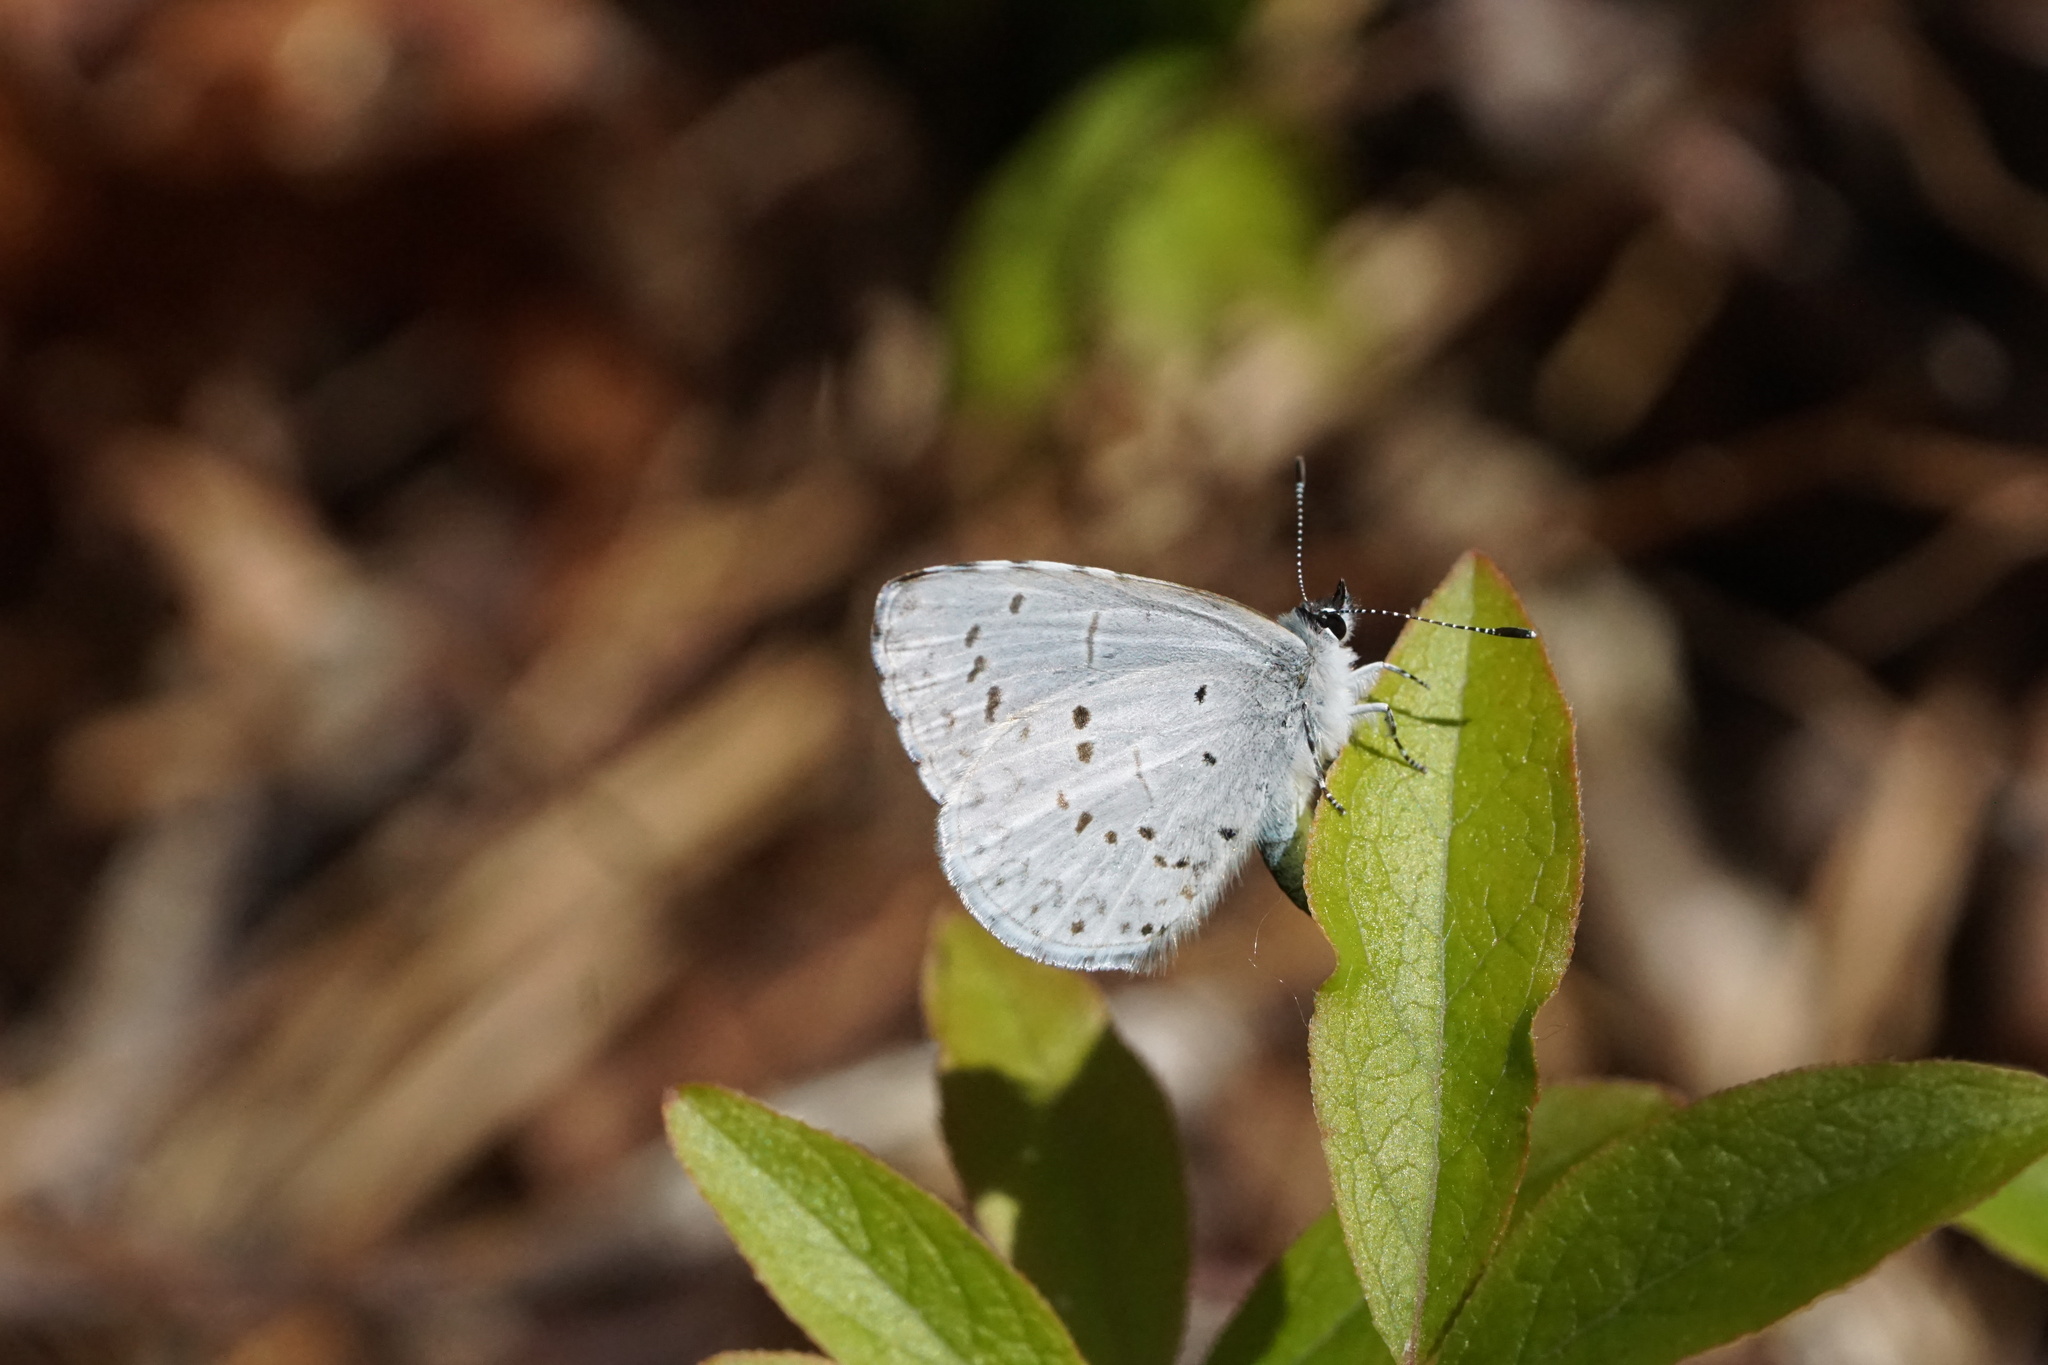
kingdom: Animalia
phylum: Arthropoda
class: Insecta
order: Lepidoptera
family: Lycaenidae
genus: Celastrina
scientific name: Celastrina serotina
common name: Cherry gall azure
